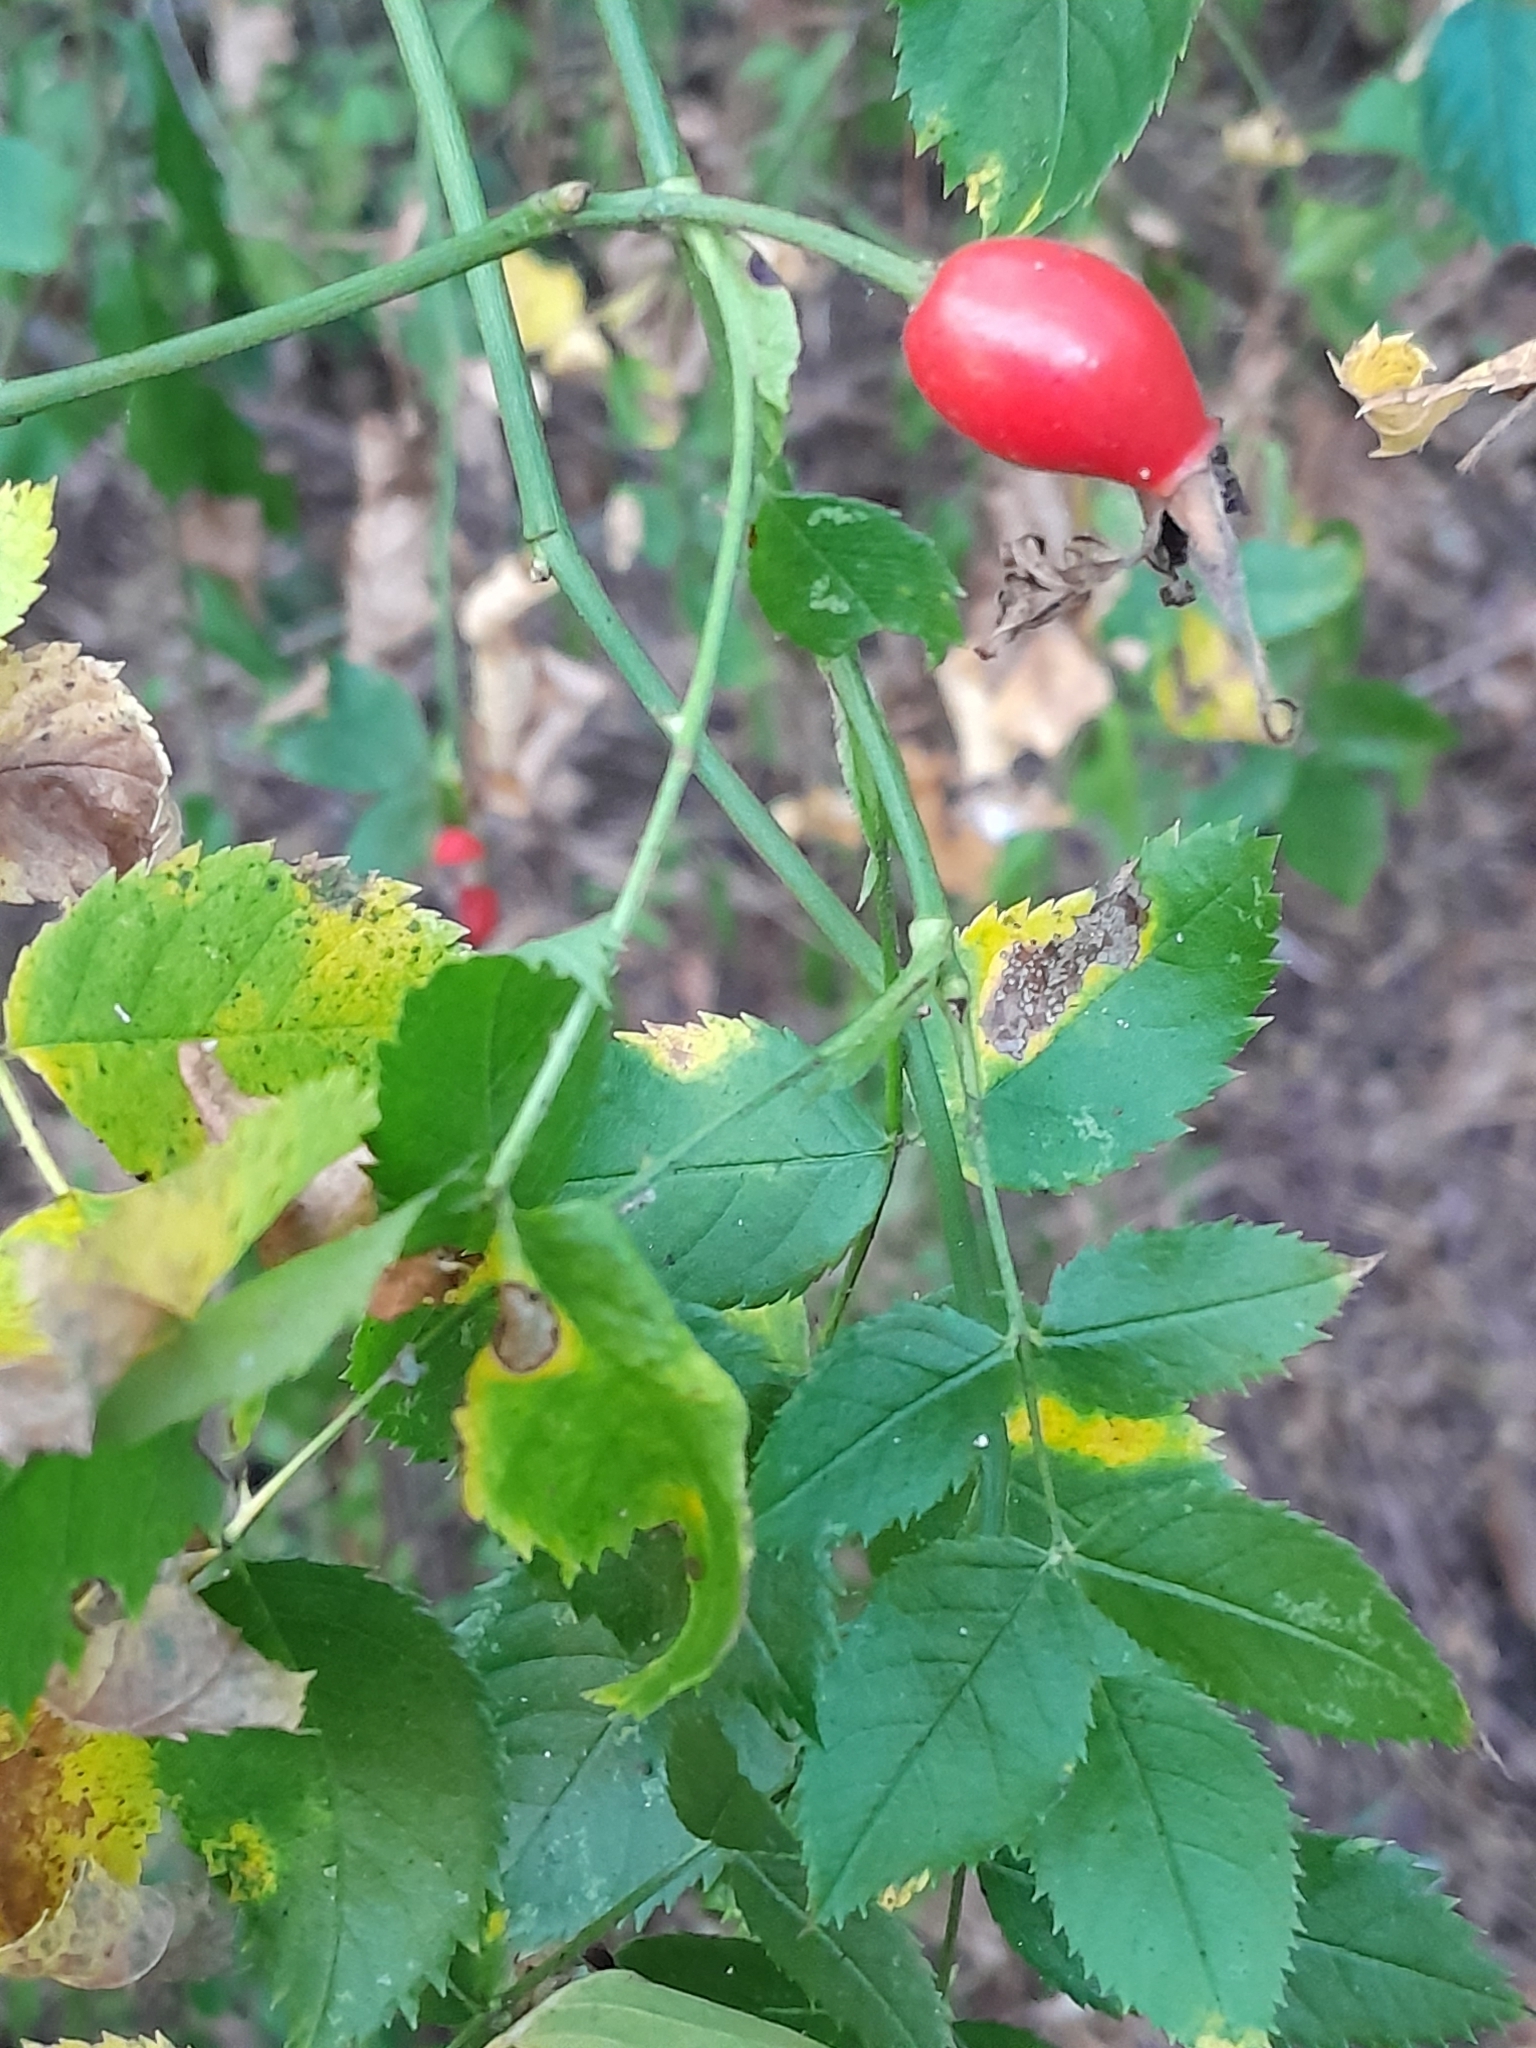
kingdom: Plantae
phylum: Tracheophyta
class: Magnoliopsida
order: Rosales
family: Rosaceae
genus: Rosa
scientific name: Rosa canina
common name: Dog rose
